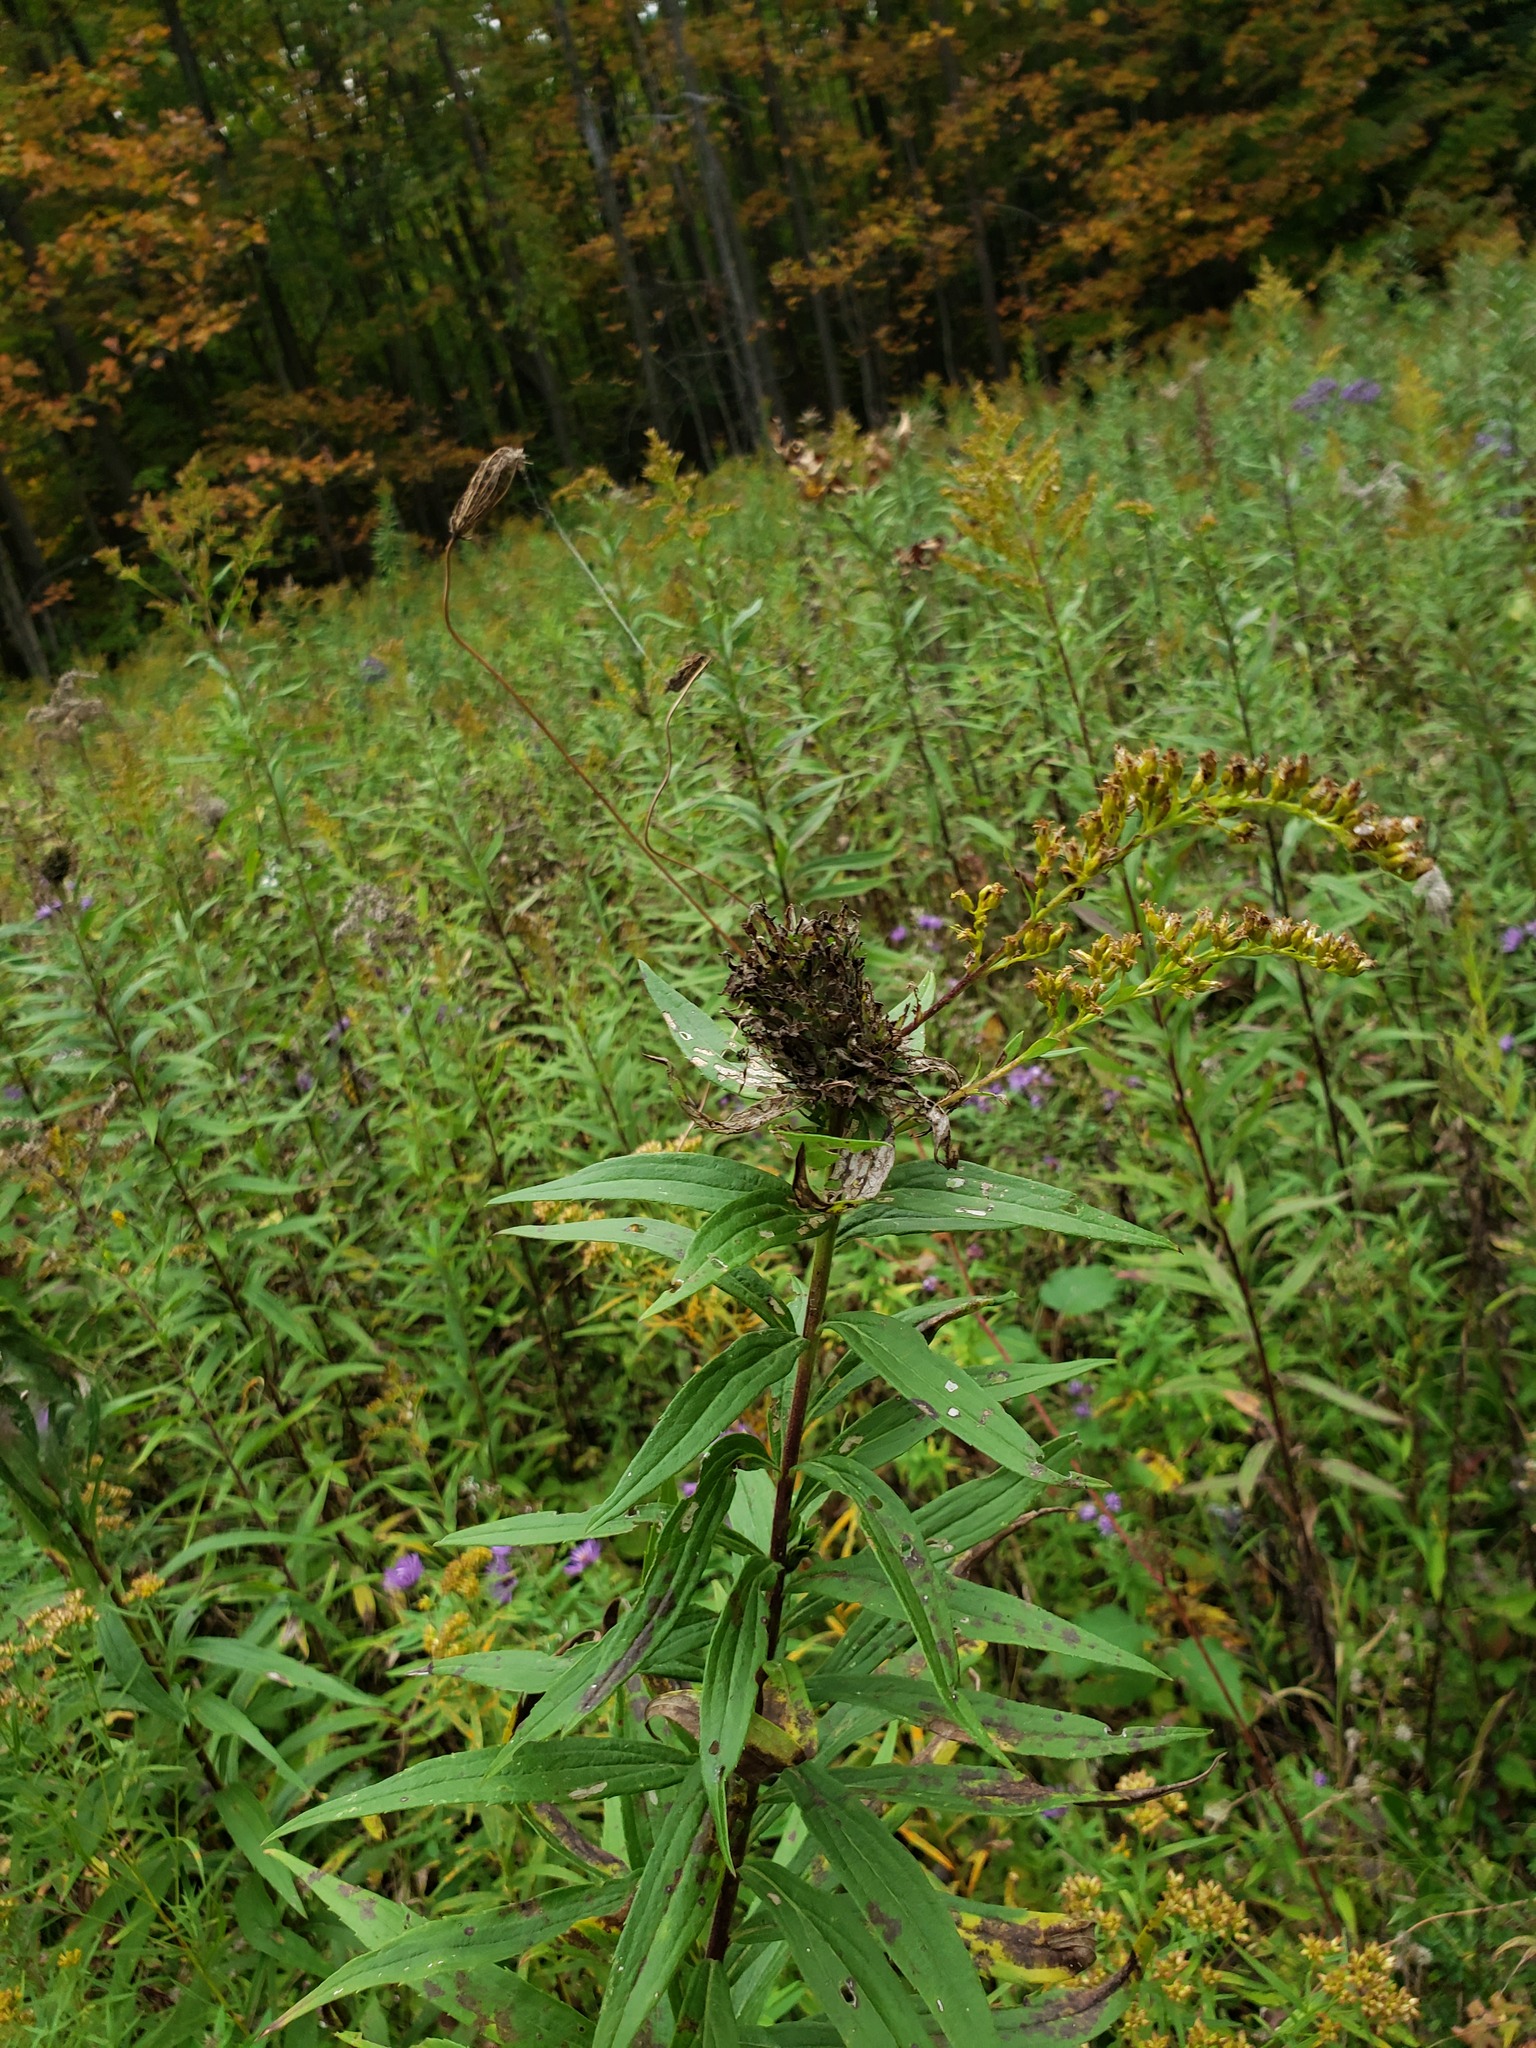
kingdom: Animalia
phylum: Arthropoda
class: Insecta
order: Diptera
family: Cecidomyiidae
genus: Rhopalomyia
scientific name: Rhopalomyia solidaginis
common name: Goldenrod bunch gall midge
